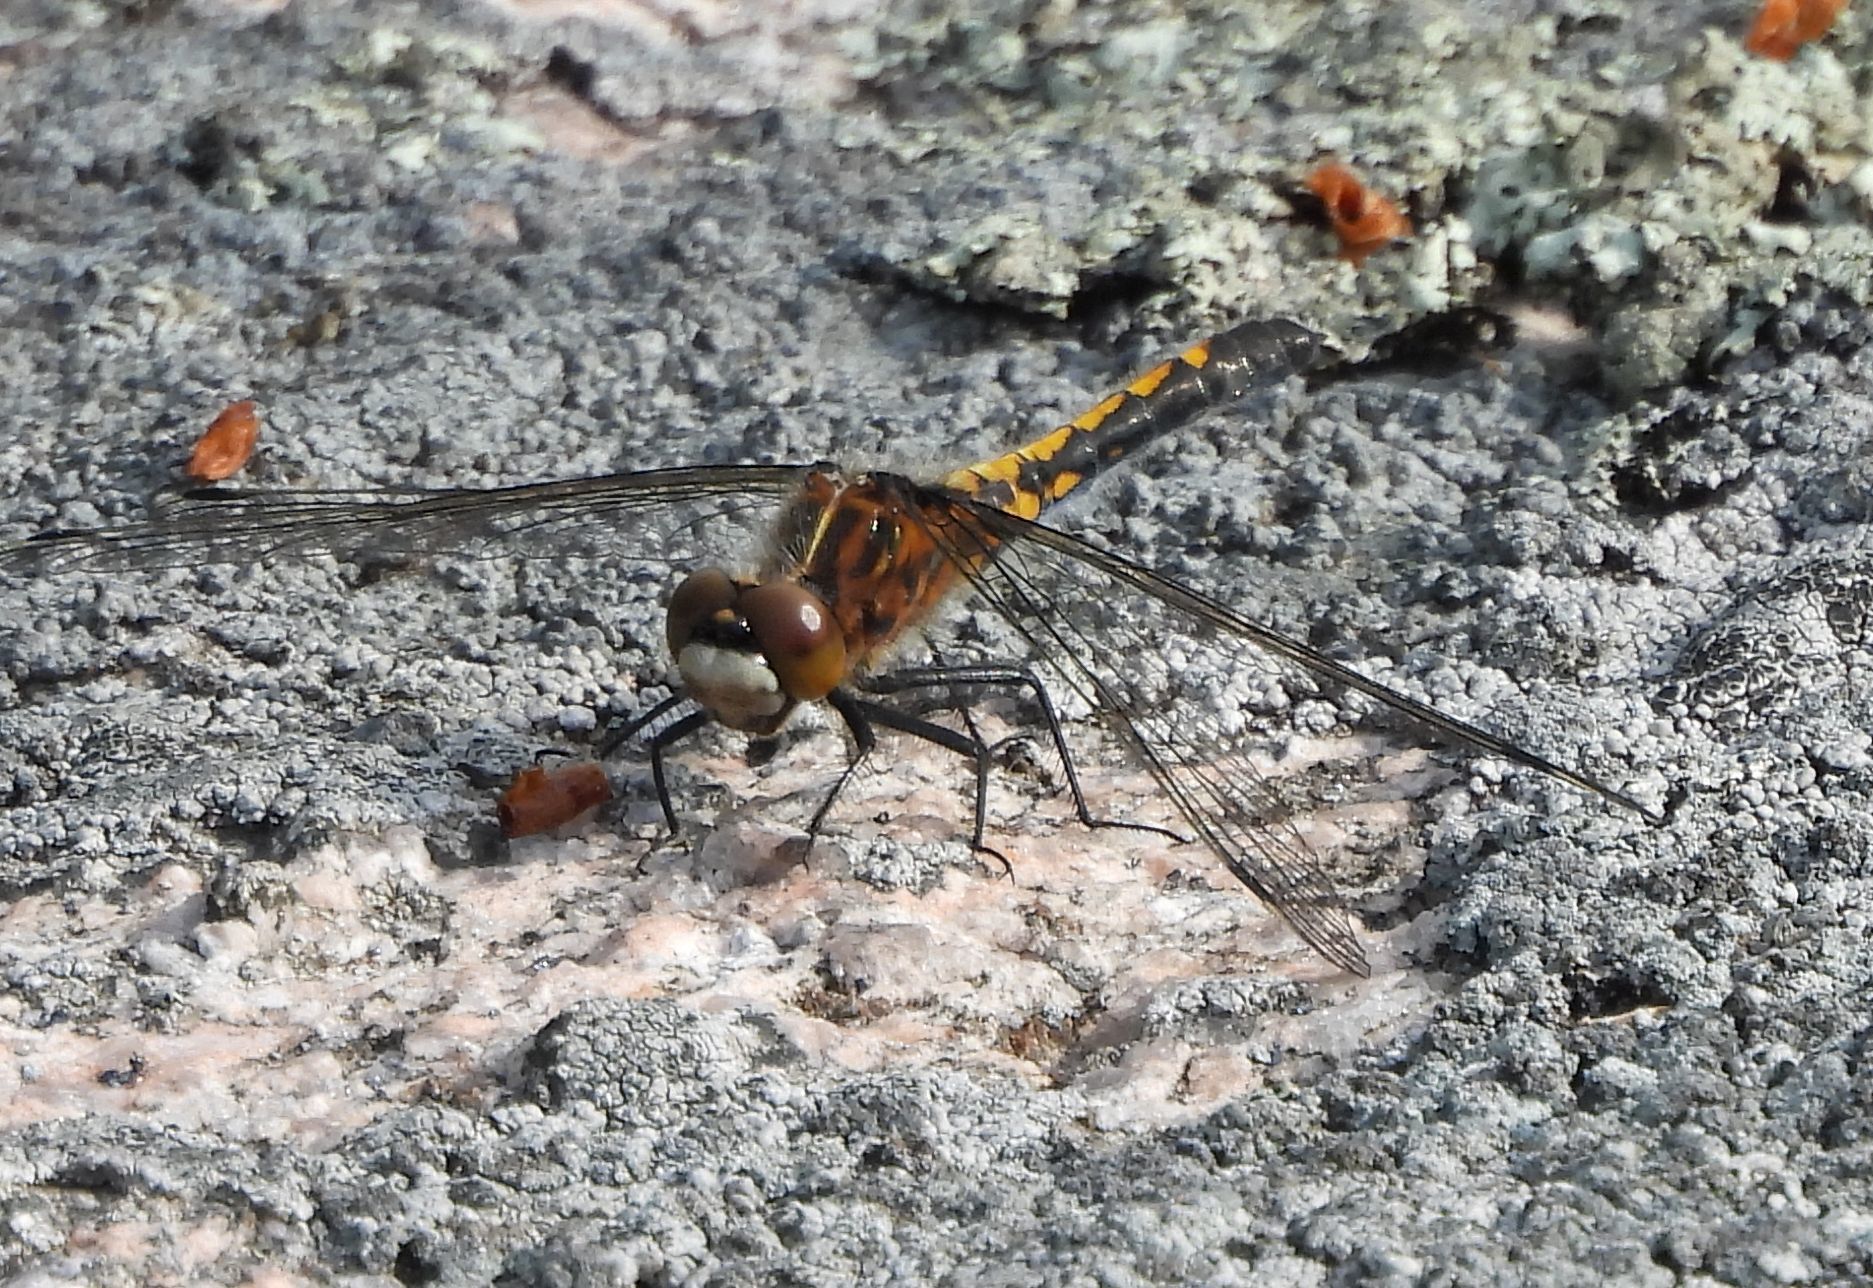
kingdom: Animalia
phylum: Arthropoda
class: Insecta
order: Odonata
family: Libellulidae
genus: Leucorrhinia
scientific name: Leucorrhinia intacta
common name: Dot-tailed whiteface
